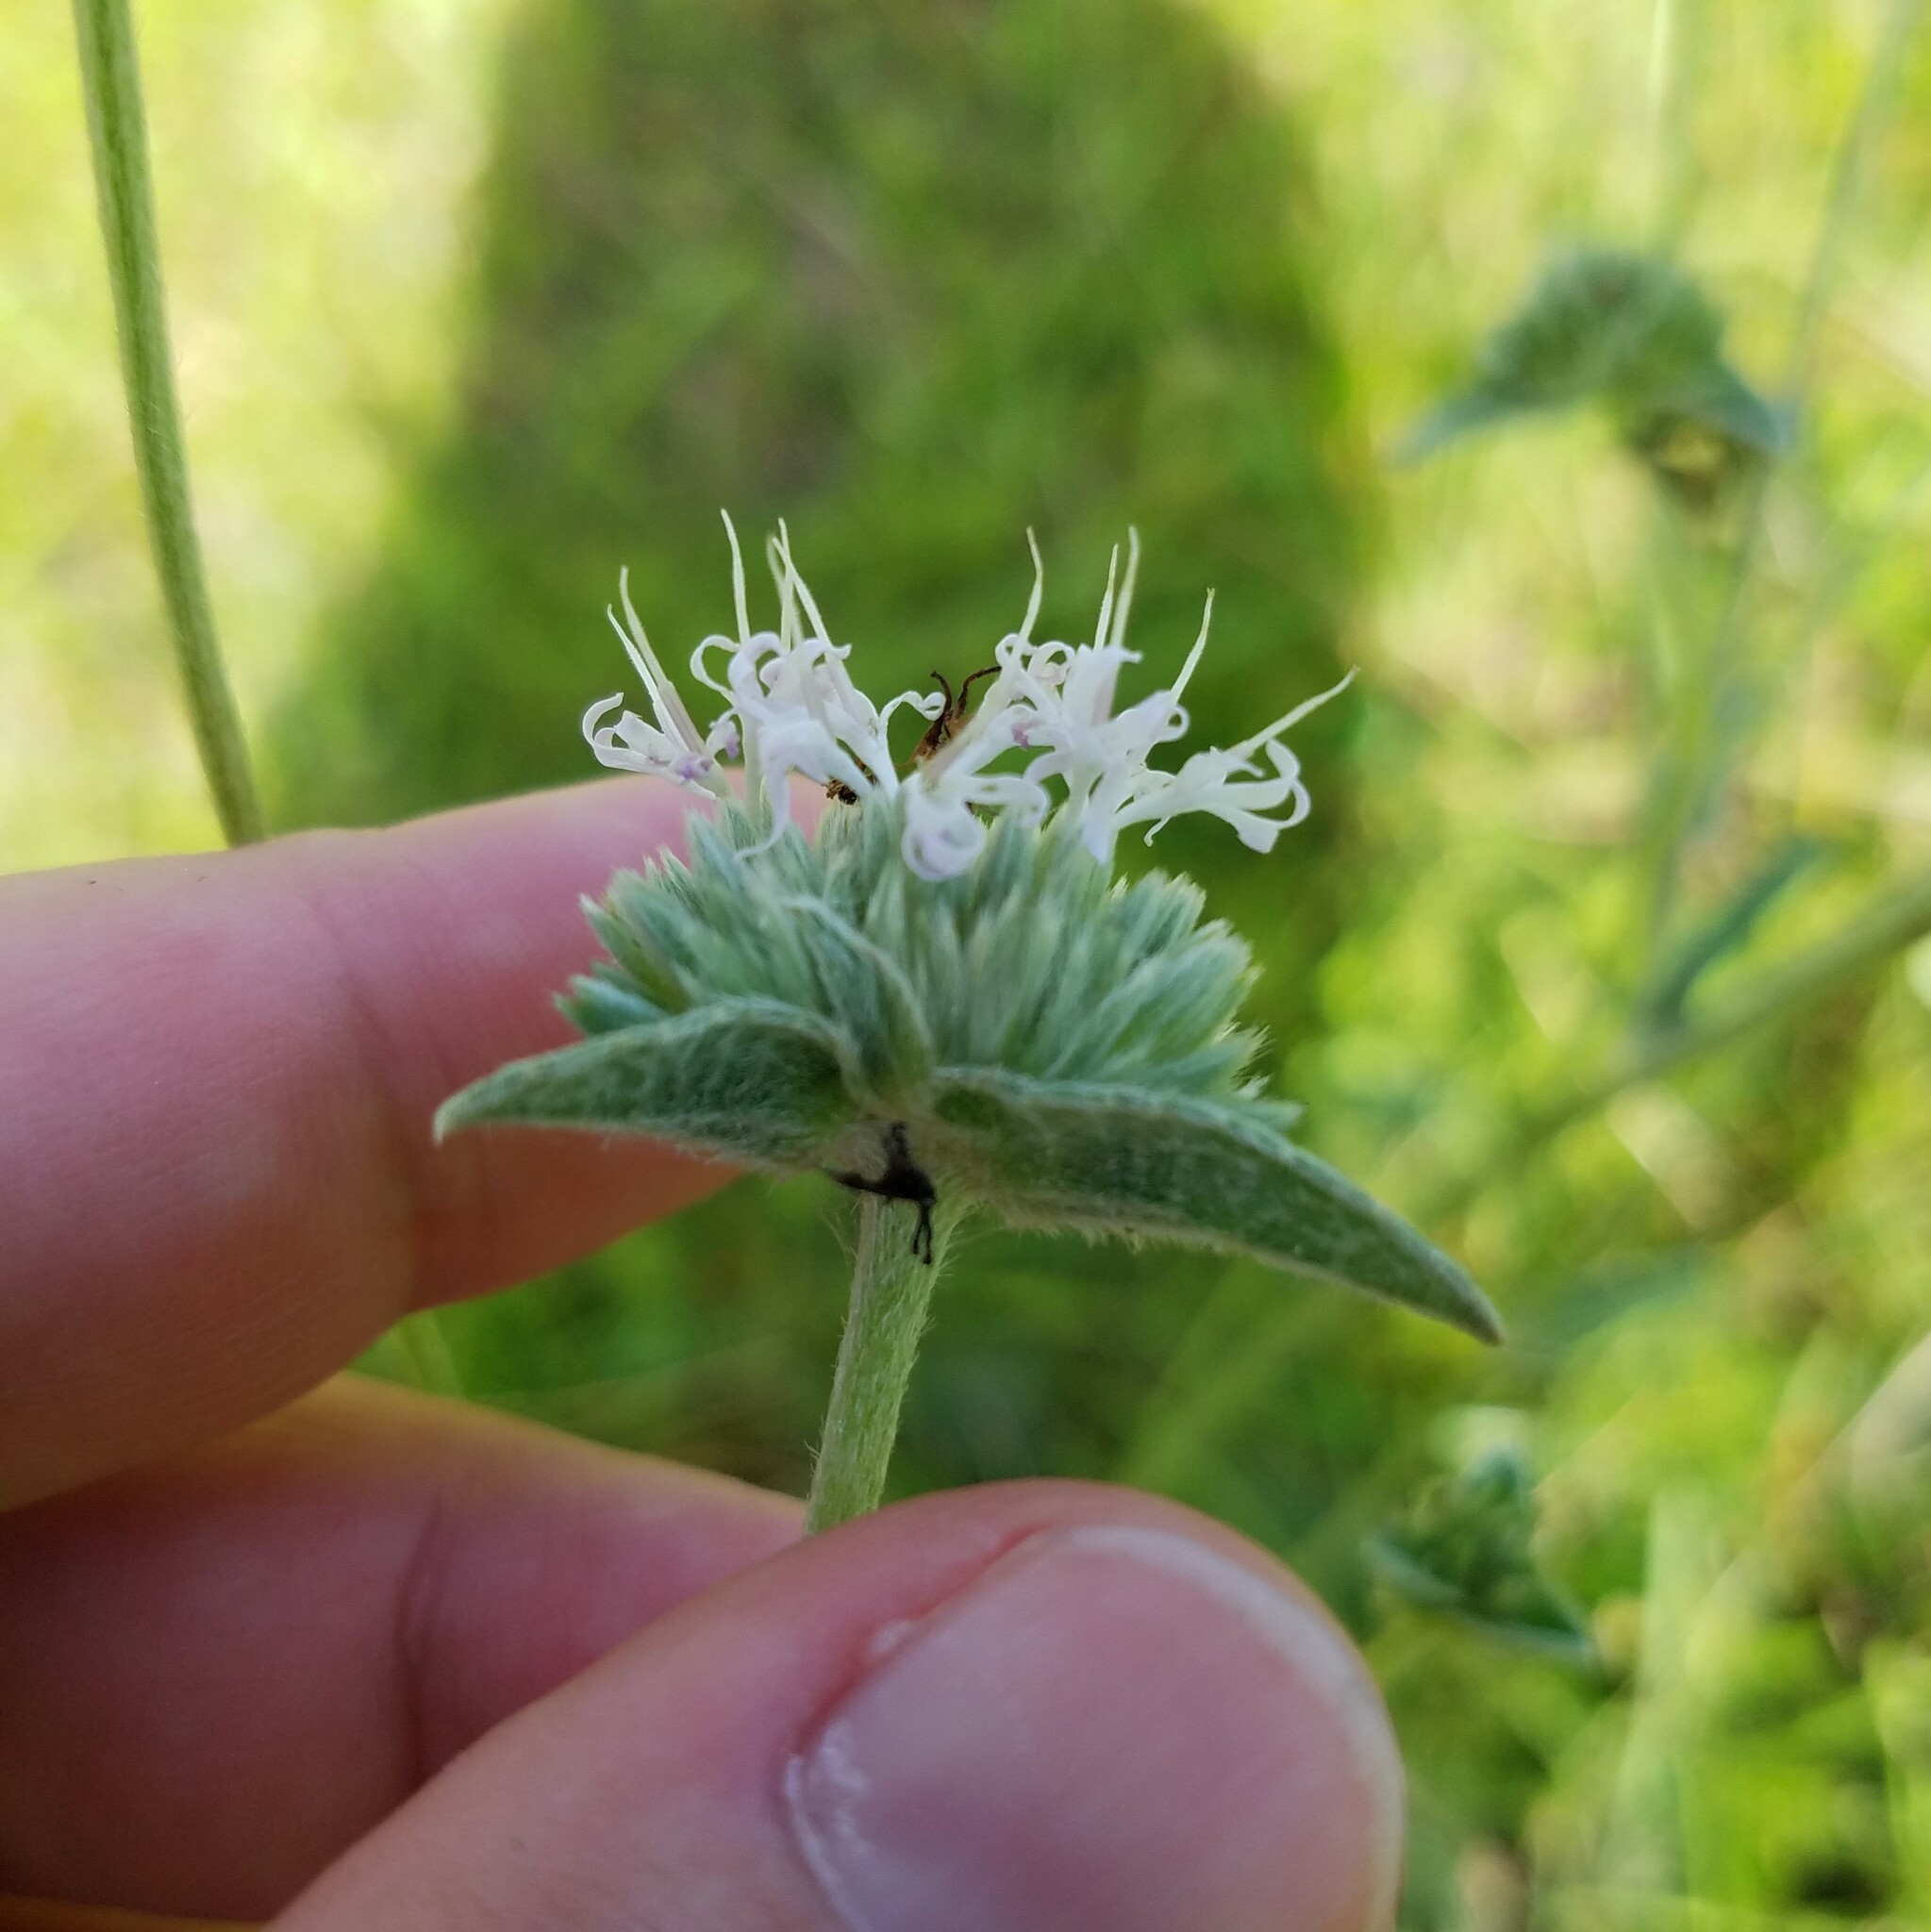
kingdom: Plantae
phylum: Tracheophyta
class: Magnoliopsida
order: Asterales
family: Asteraceae
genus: Elephantopus
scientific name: Elephantopus elatus
